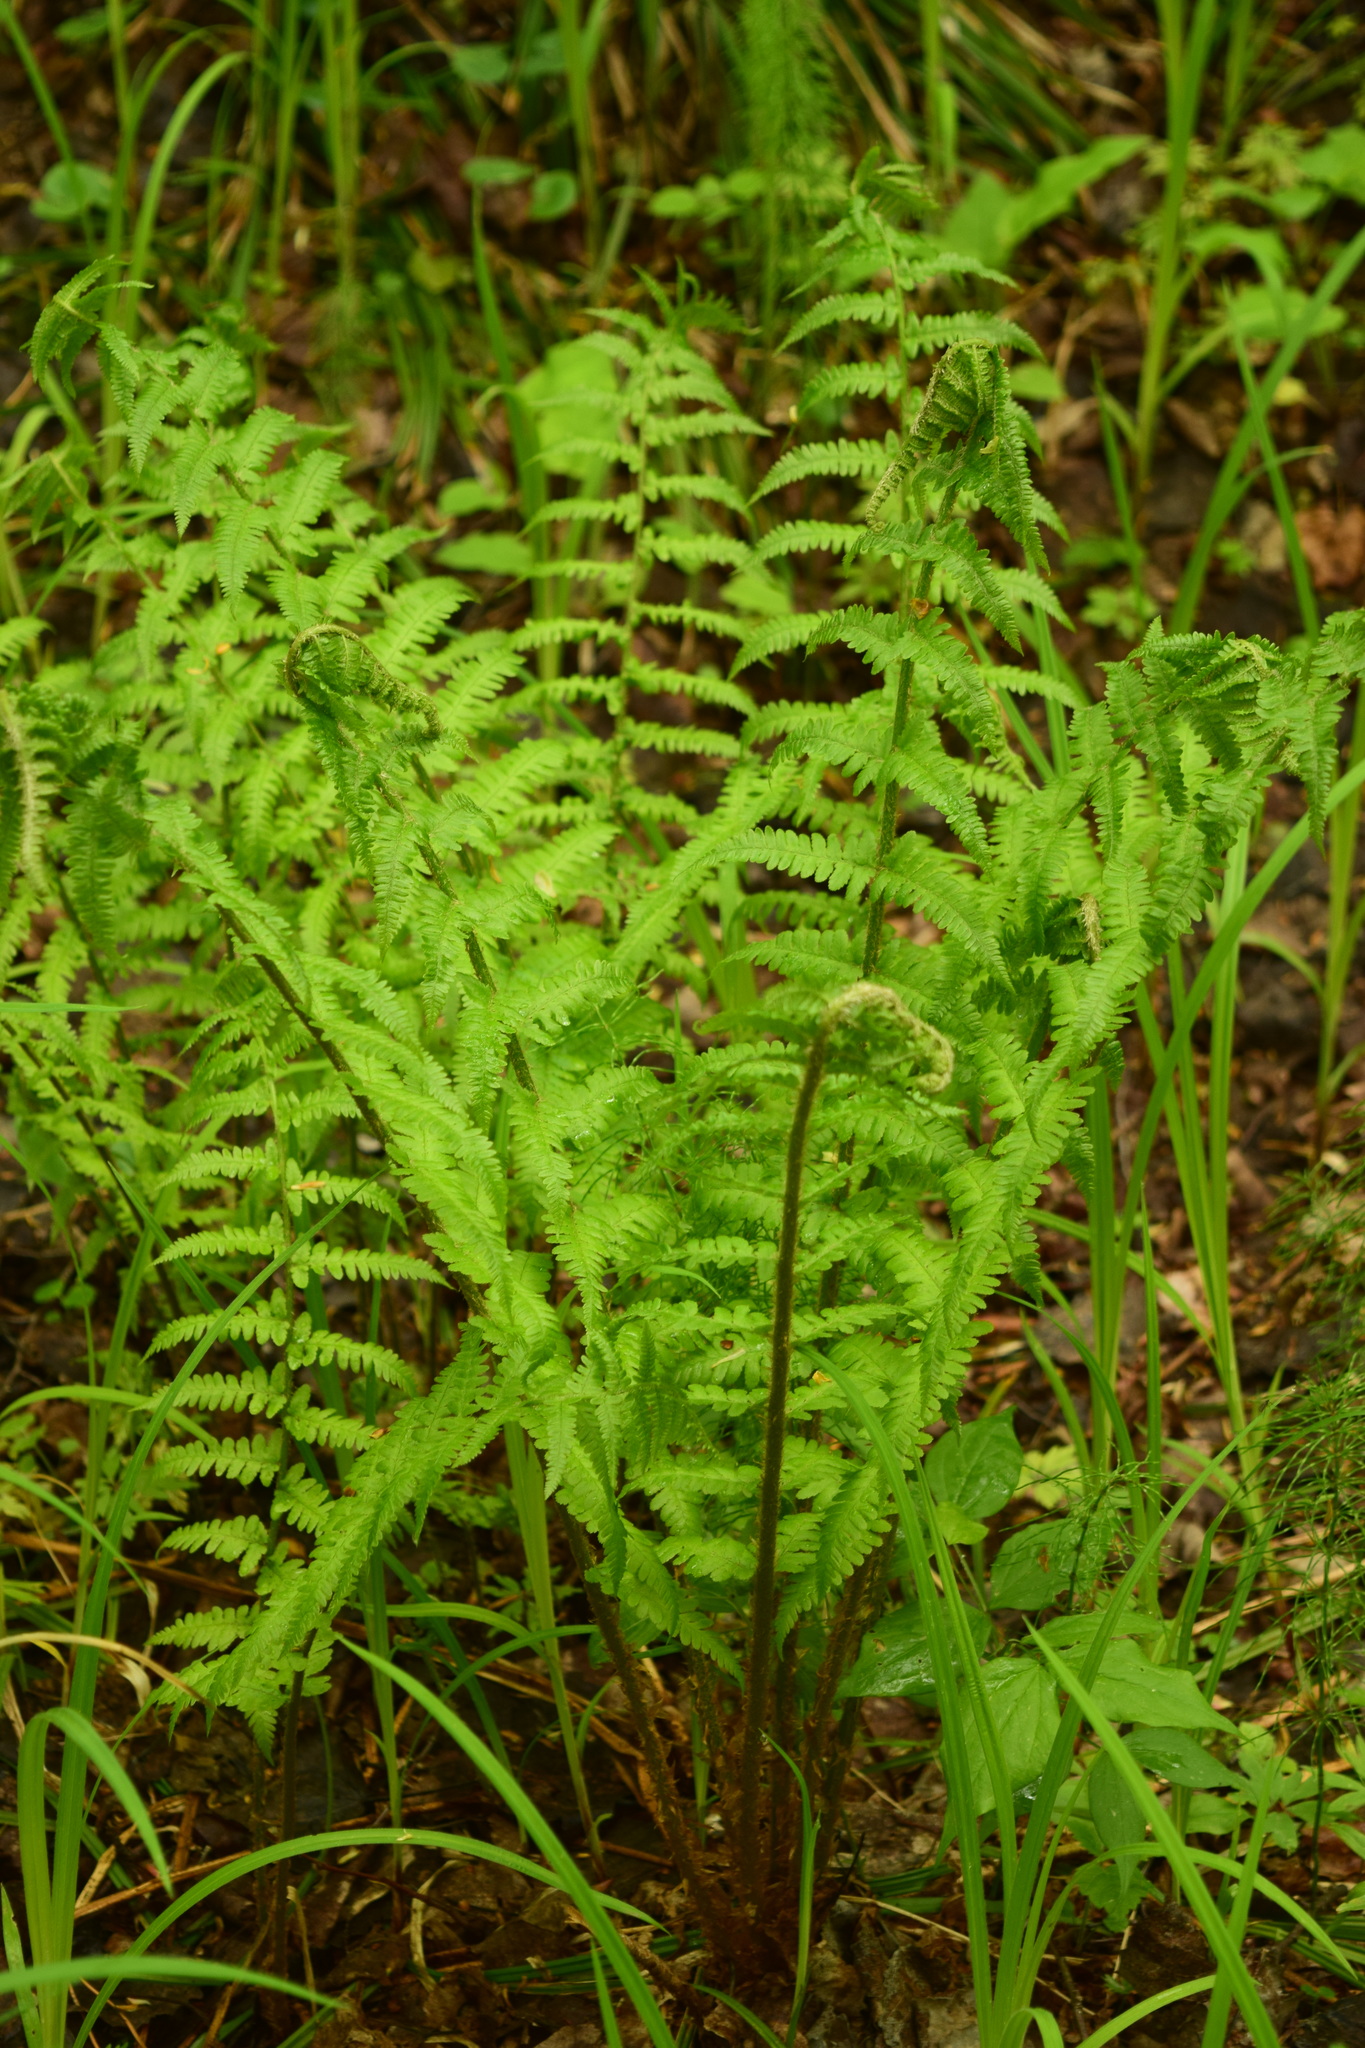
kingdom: Plantae
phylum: Tracheophyta
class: Polypodiopsida
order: Polypodiales
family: Dryopteridaceae
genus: Dryopteris
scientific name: Dryopteris filix-mas
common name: Male fern
